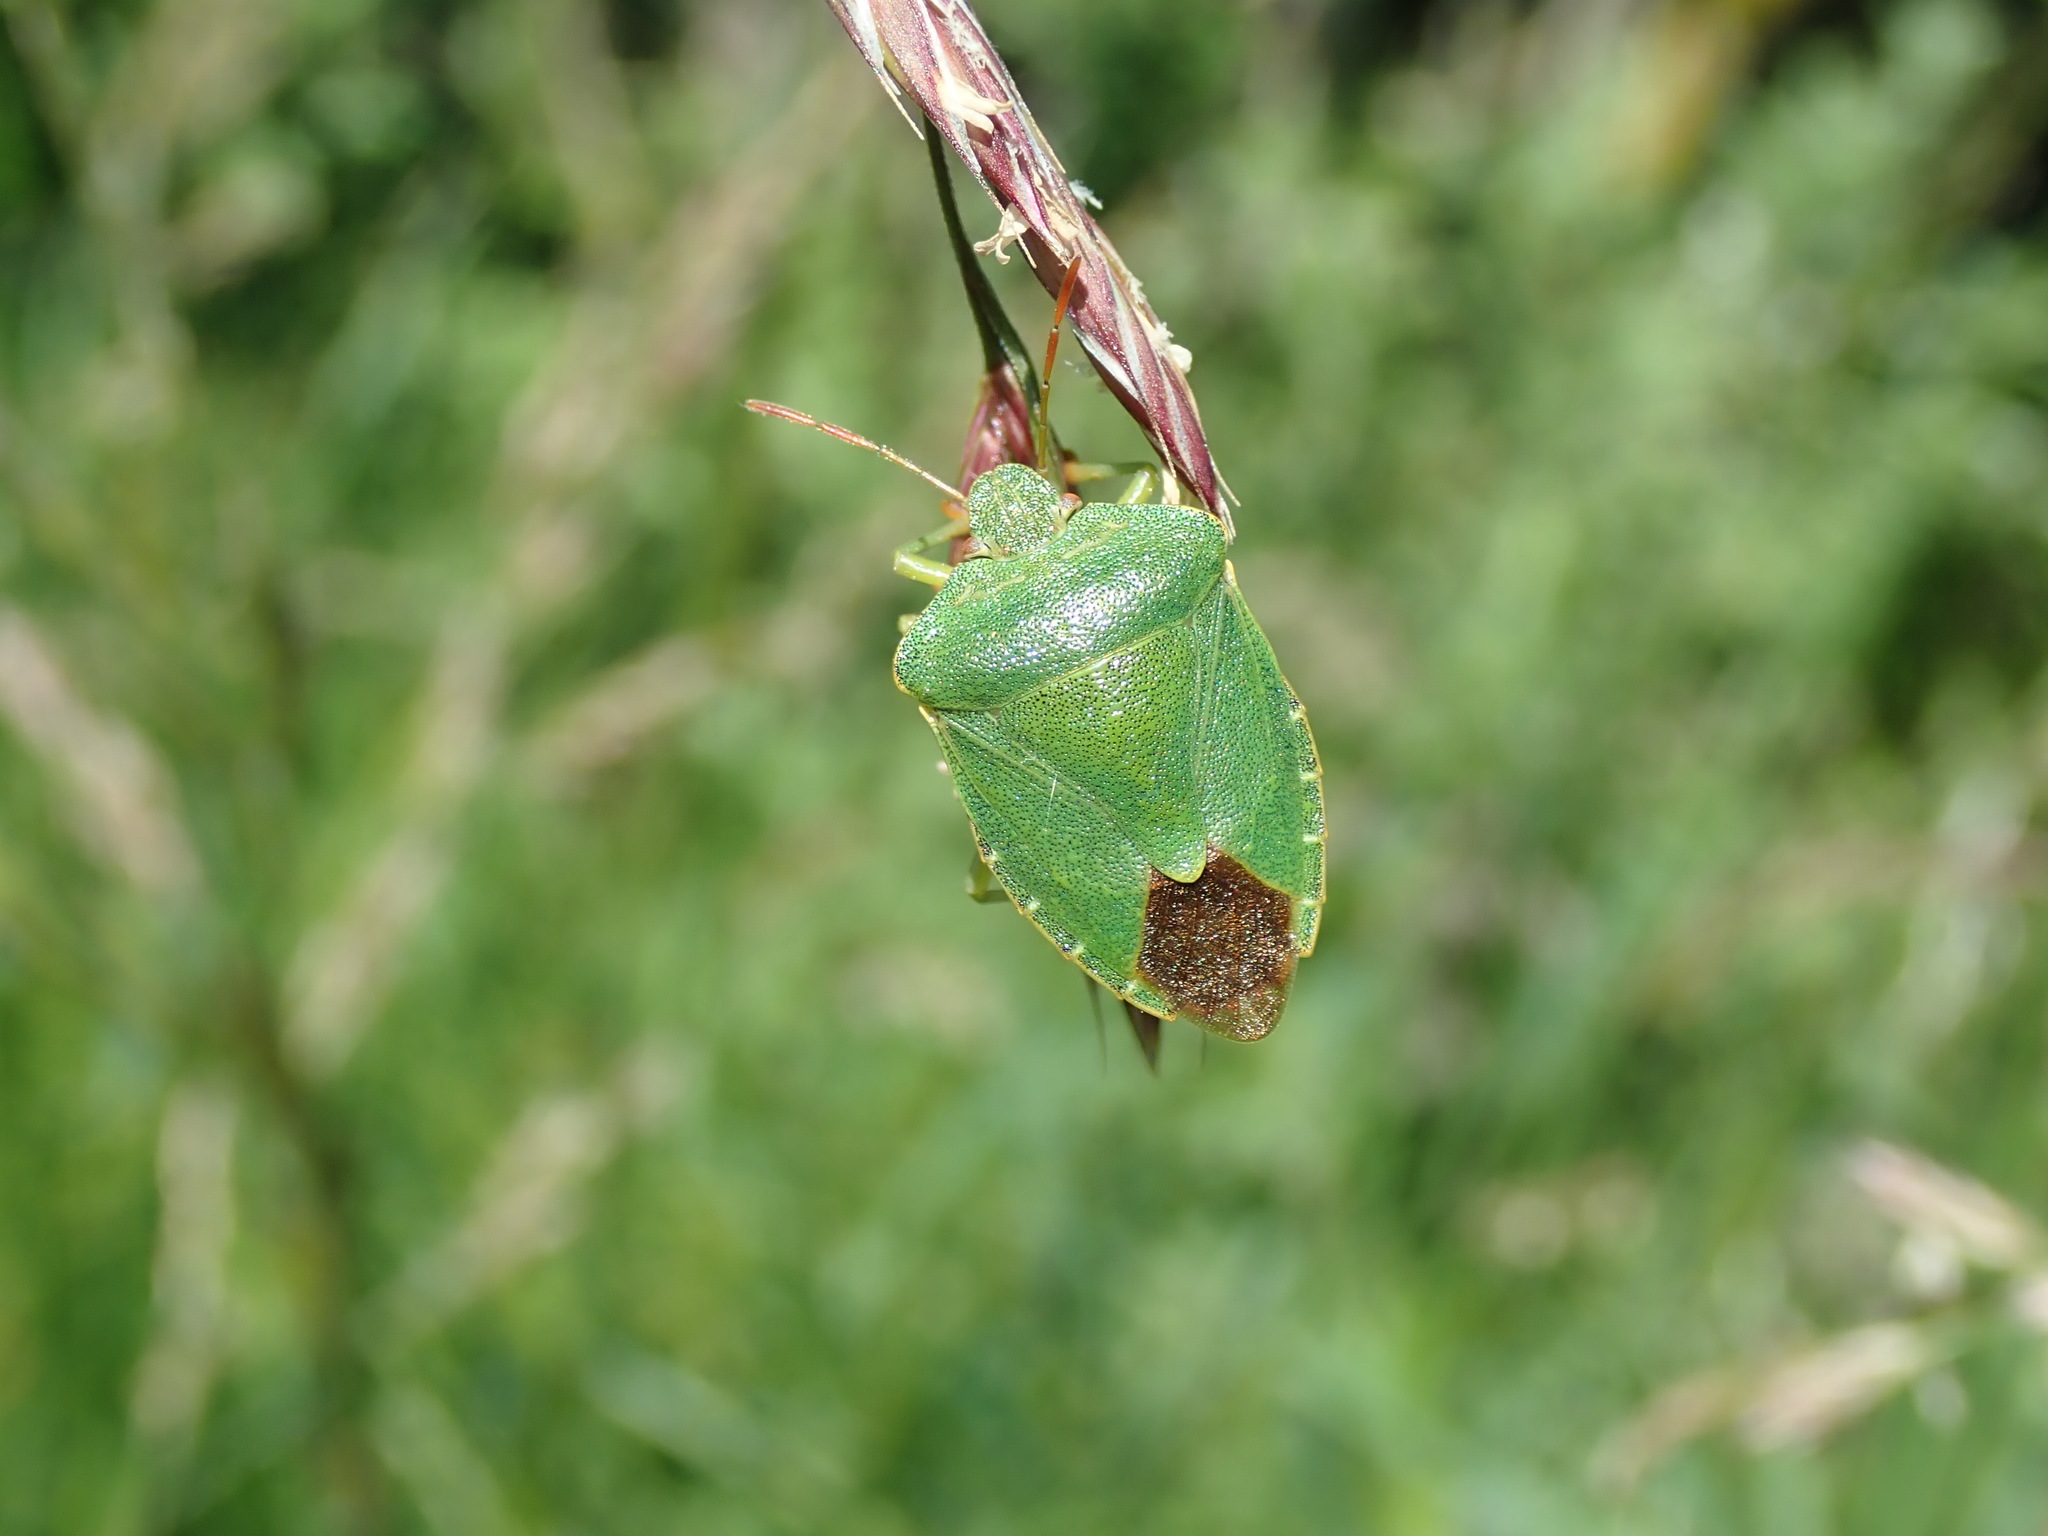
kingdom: Animalia
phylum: Arthropoda
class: Insecta
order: Hemiptera
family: Pentatomidae
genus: Palomena
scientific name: Palomena prasina
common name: Green shieldbug
